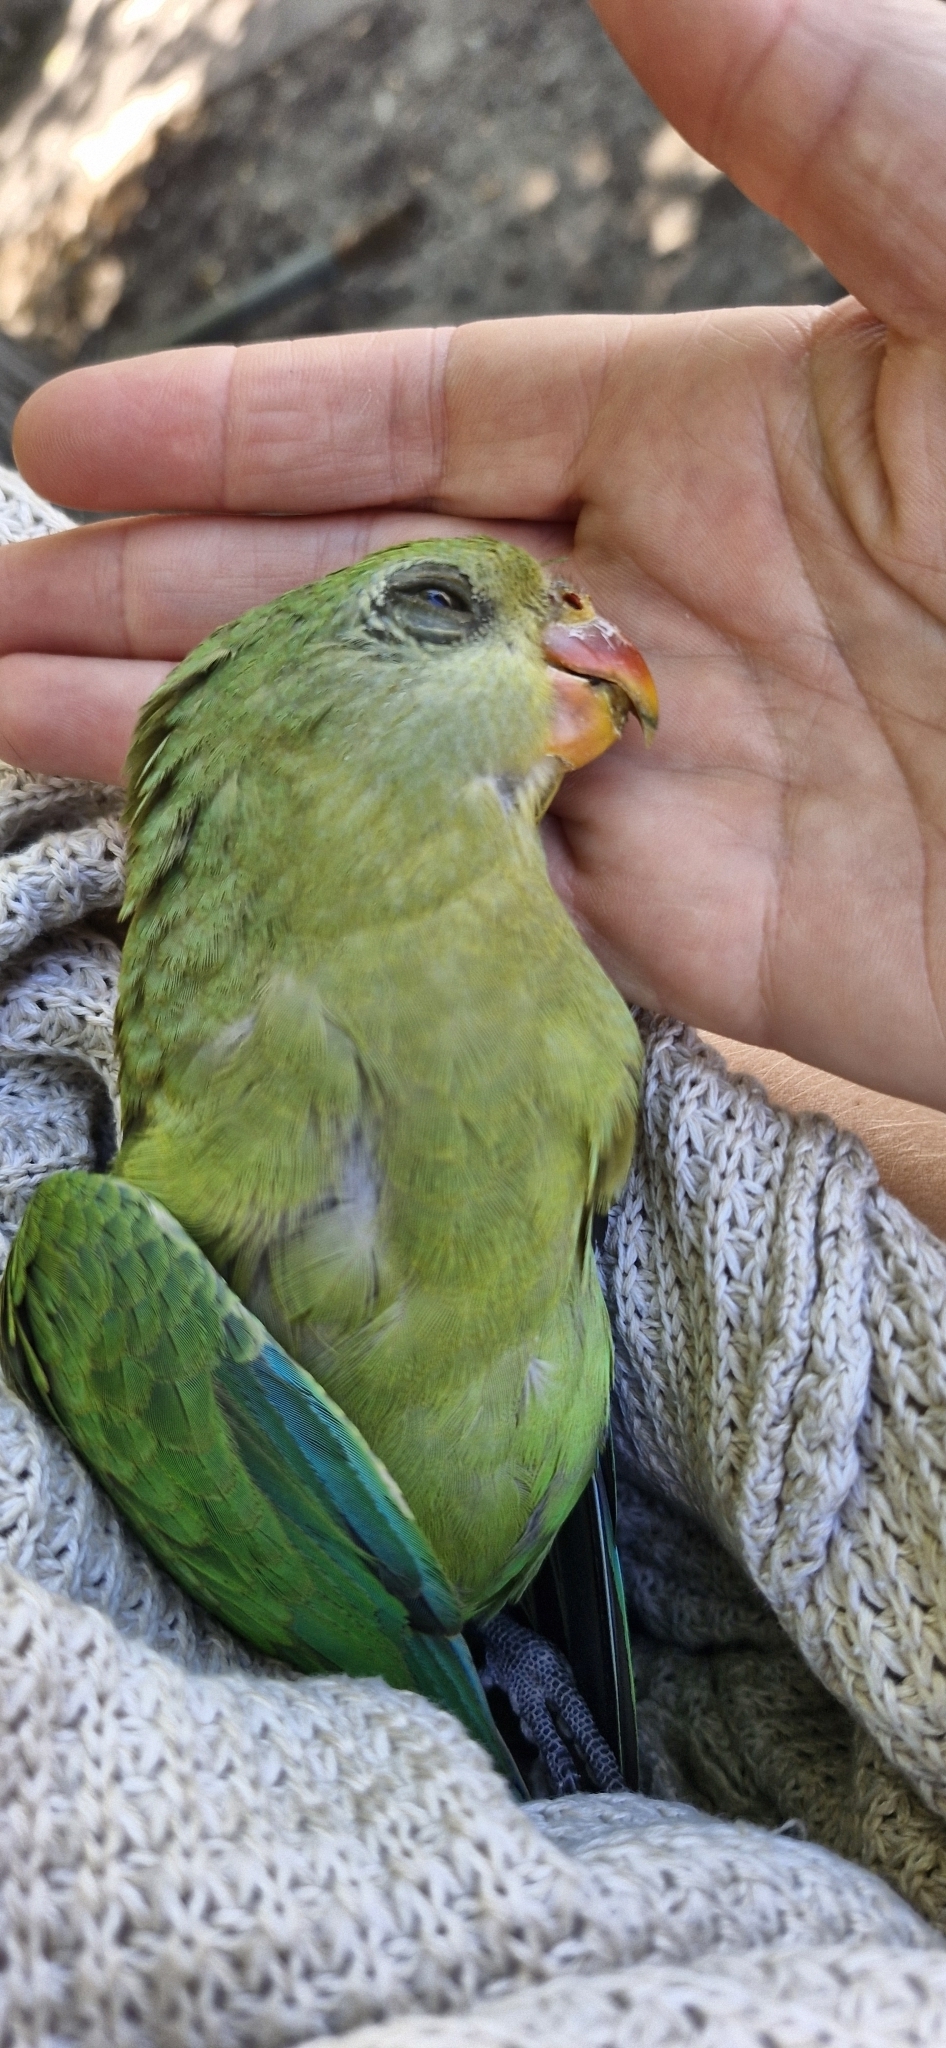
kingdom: Animalia
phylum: Chordata
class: Aves
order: Psittaciformes
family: Psittacidae
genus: Polytelis
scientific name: Polytelis swainsonii
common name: Superb parrot
